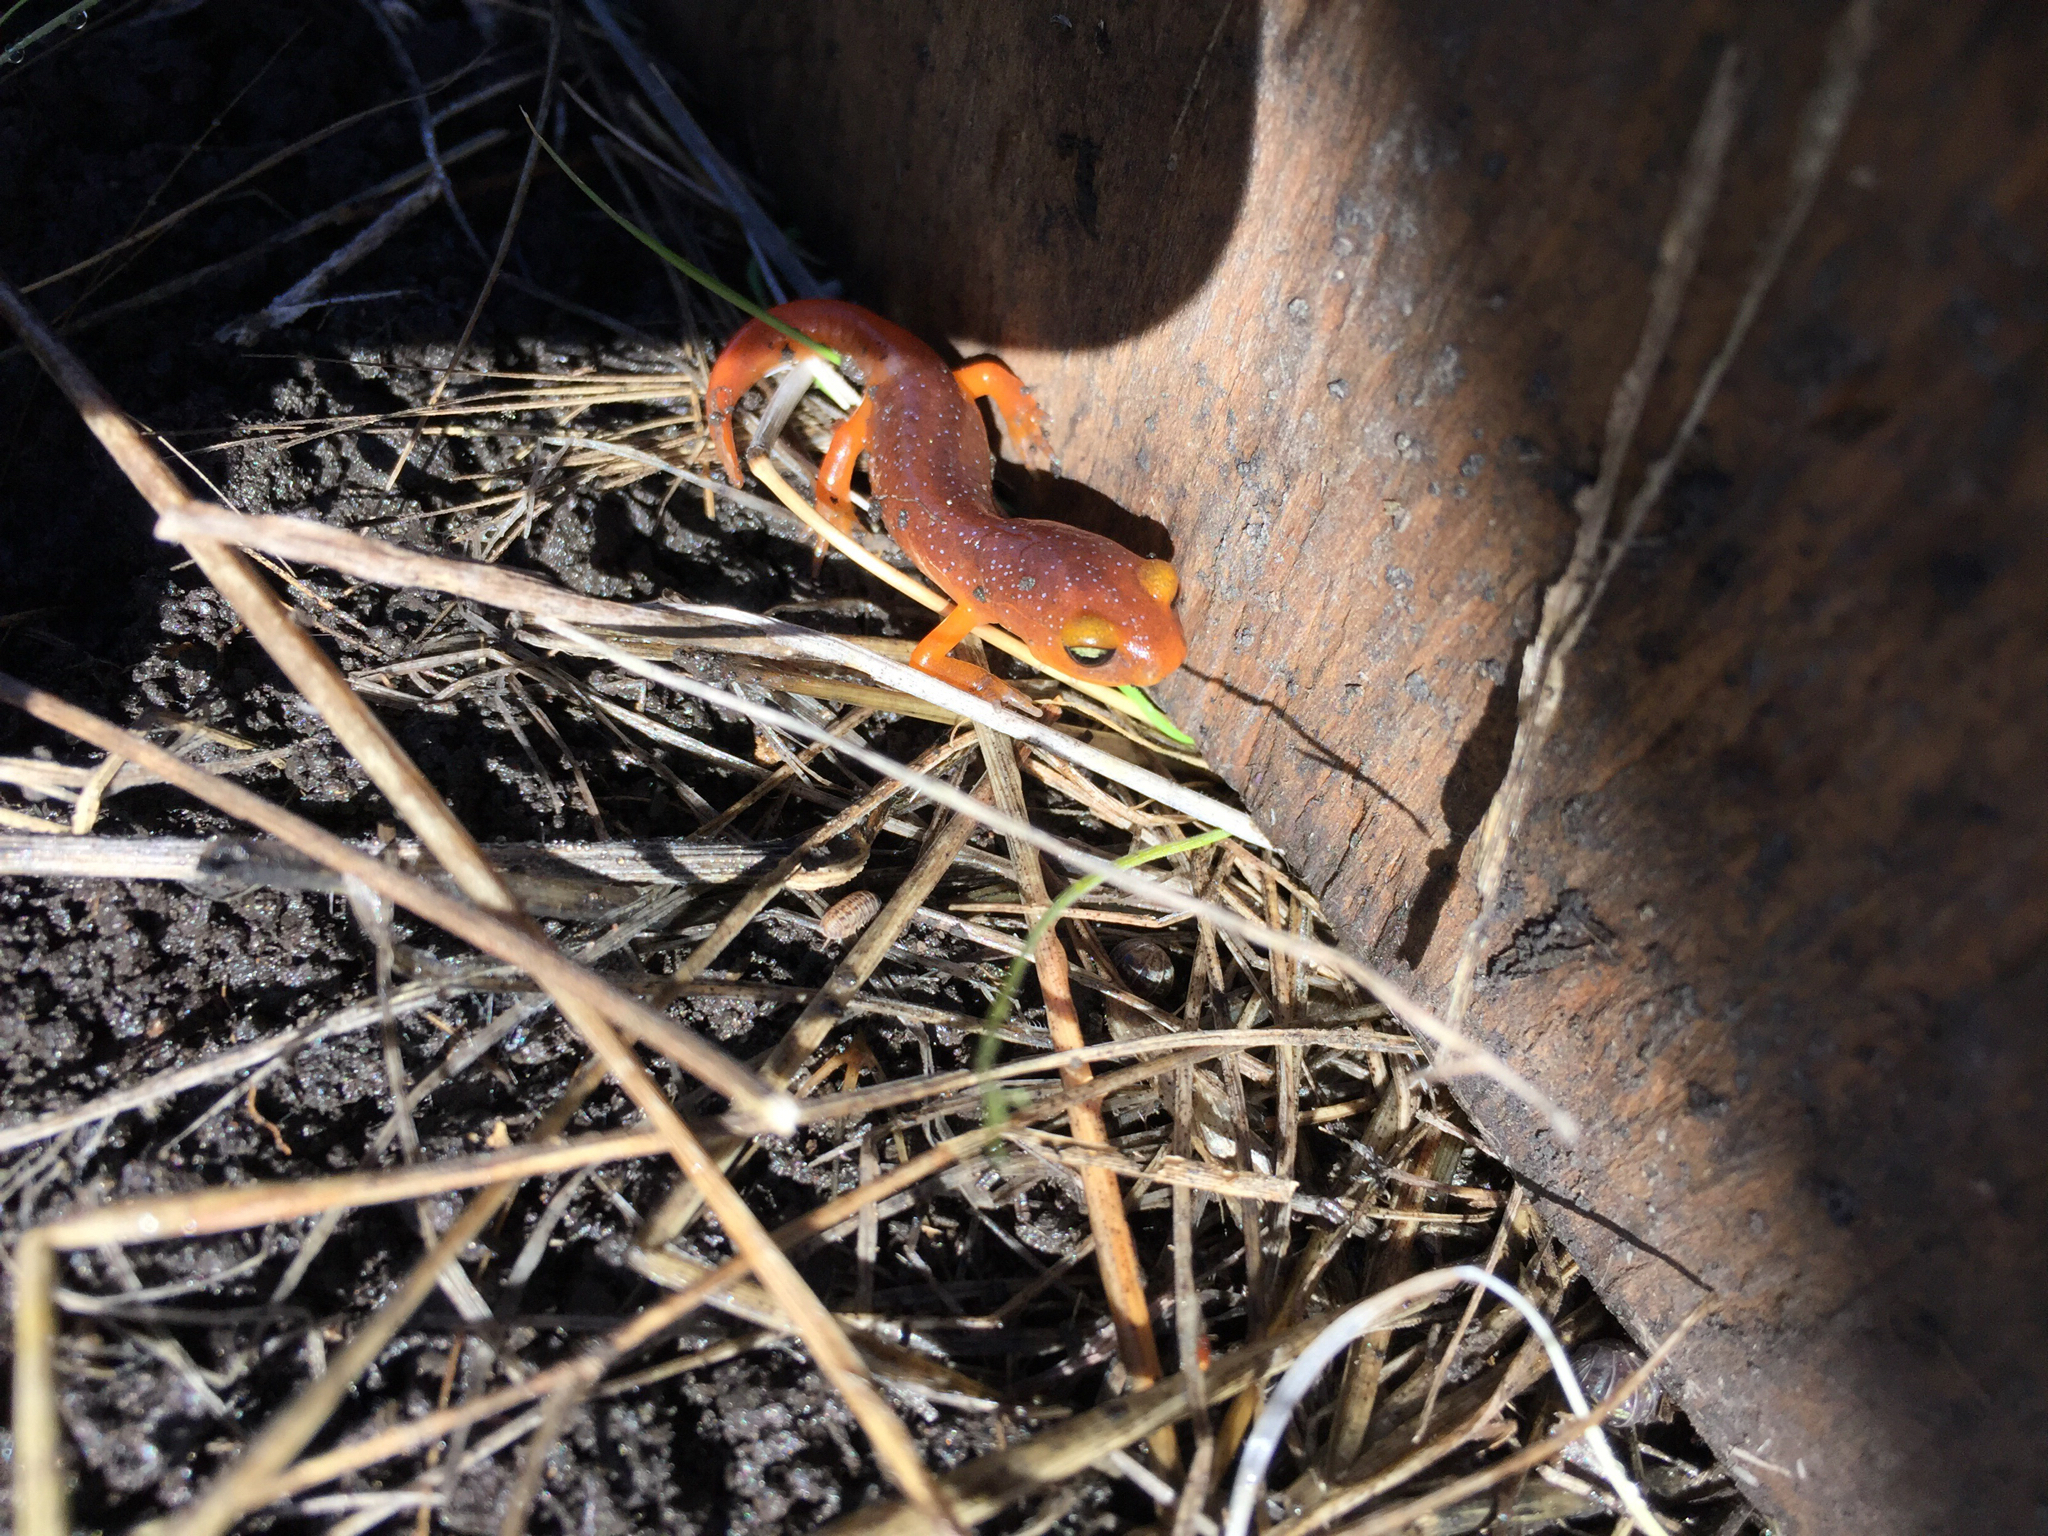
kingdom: Animalia
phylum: Chordata
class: Amphibia
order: Caudata
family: Plethodontidae
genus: Ensatina
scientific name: Ensatina eschscholtzii
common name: Ensatina
